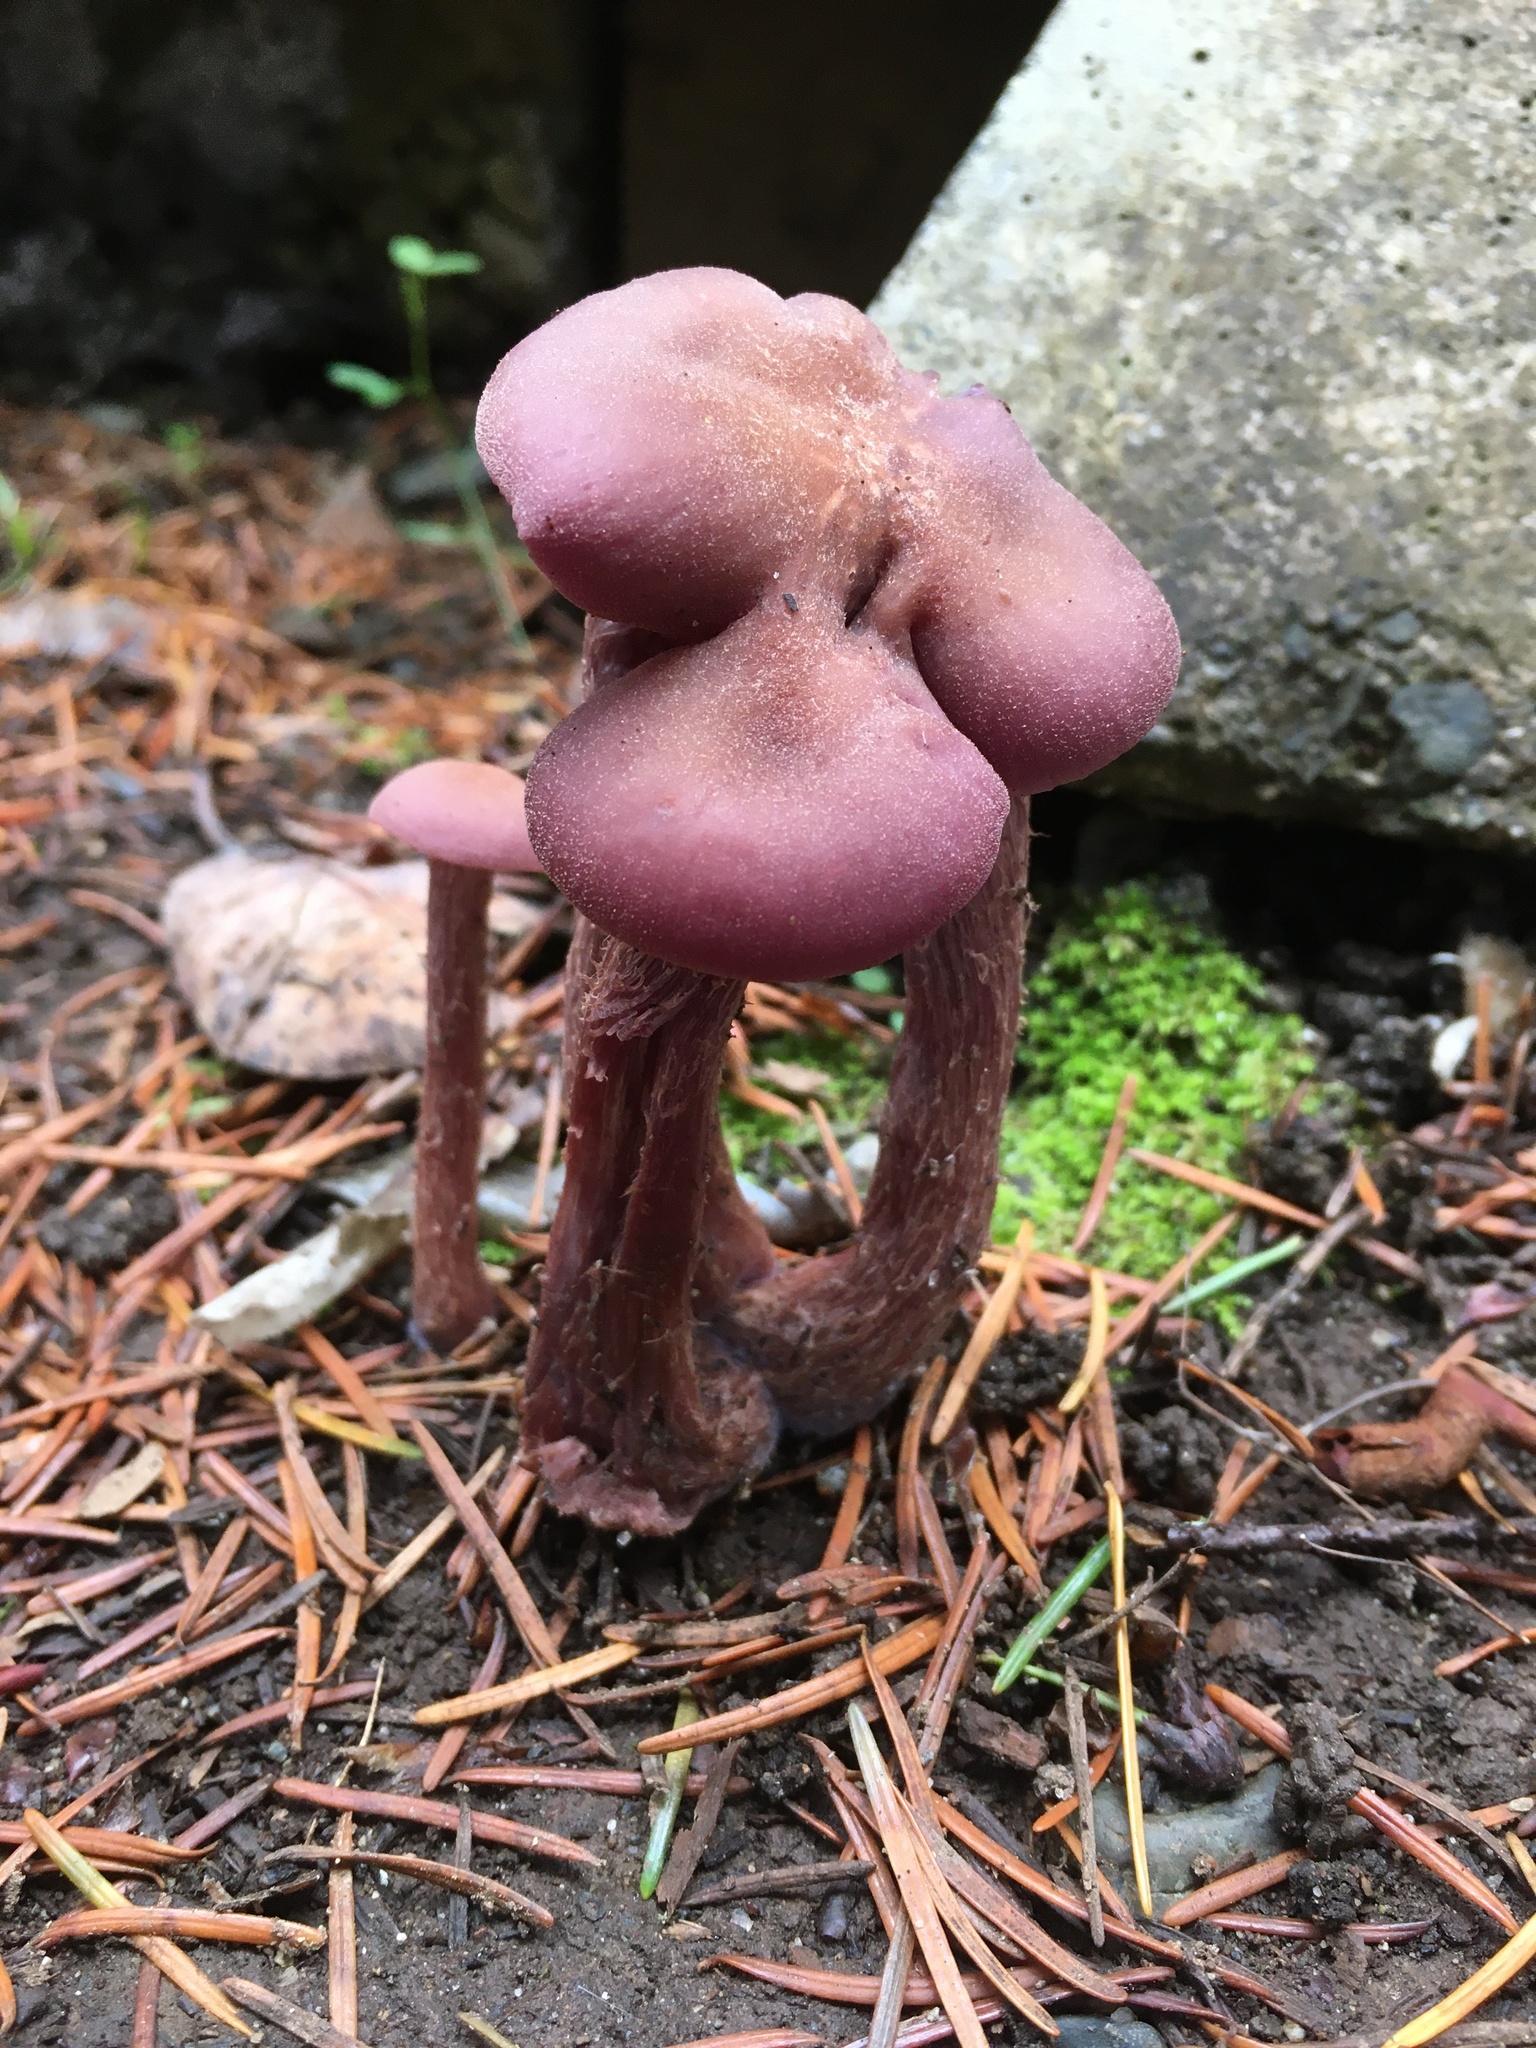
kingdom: Fungi
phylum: Basidiomycota
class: Agaricomycetes
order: Agaricales
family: Hydnangiaceae
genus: Laccaria
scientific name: Laccaria amethysteo-occidentalis
